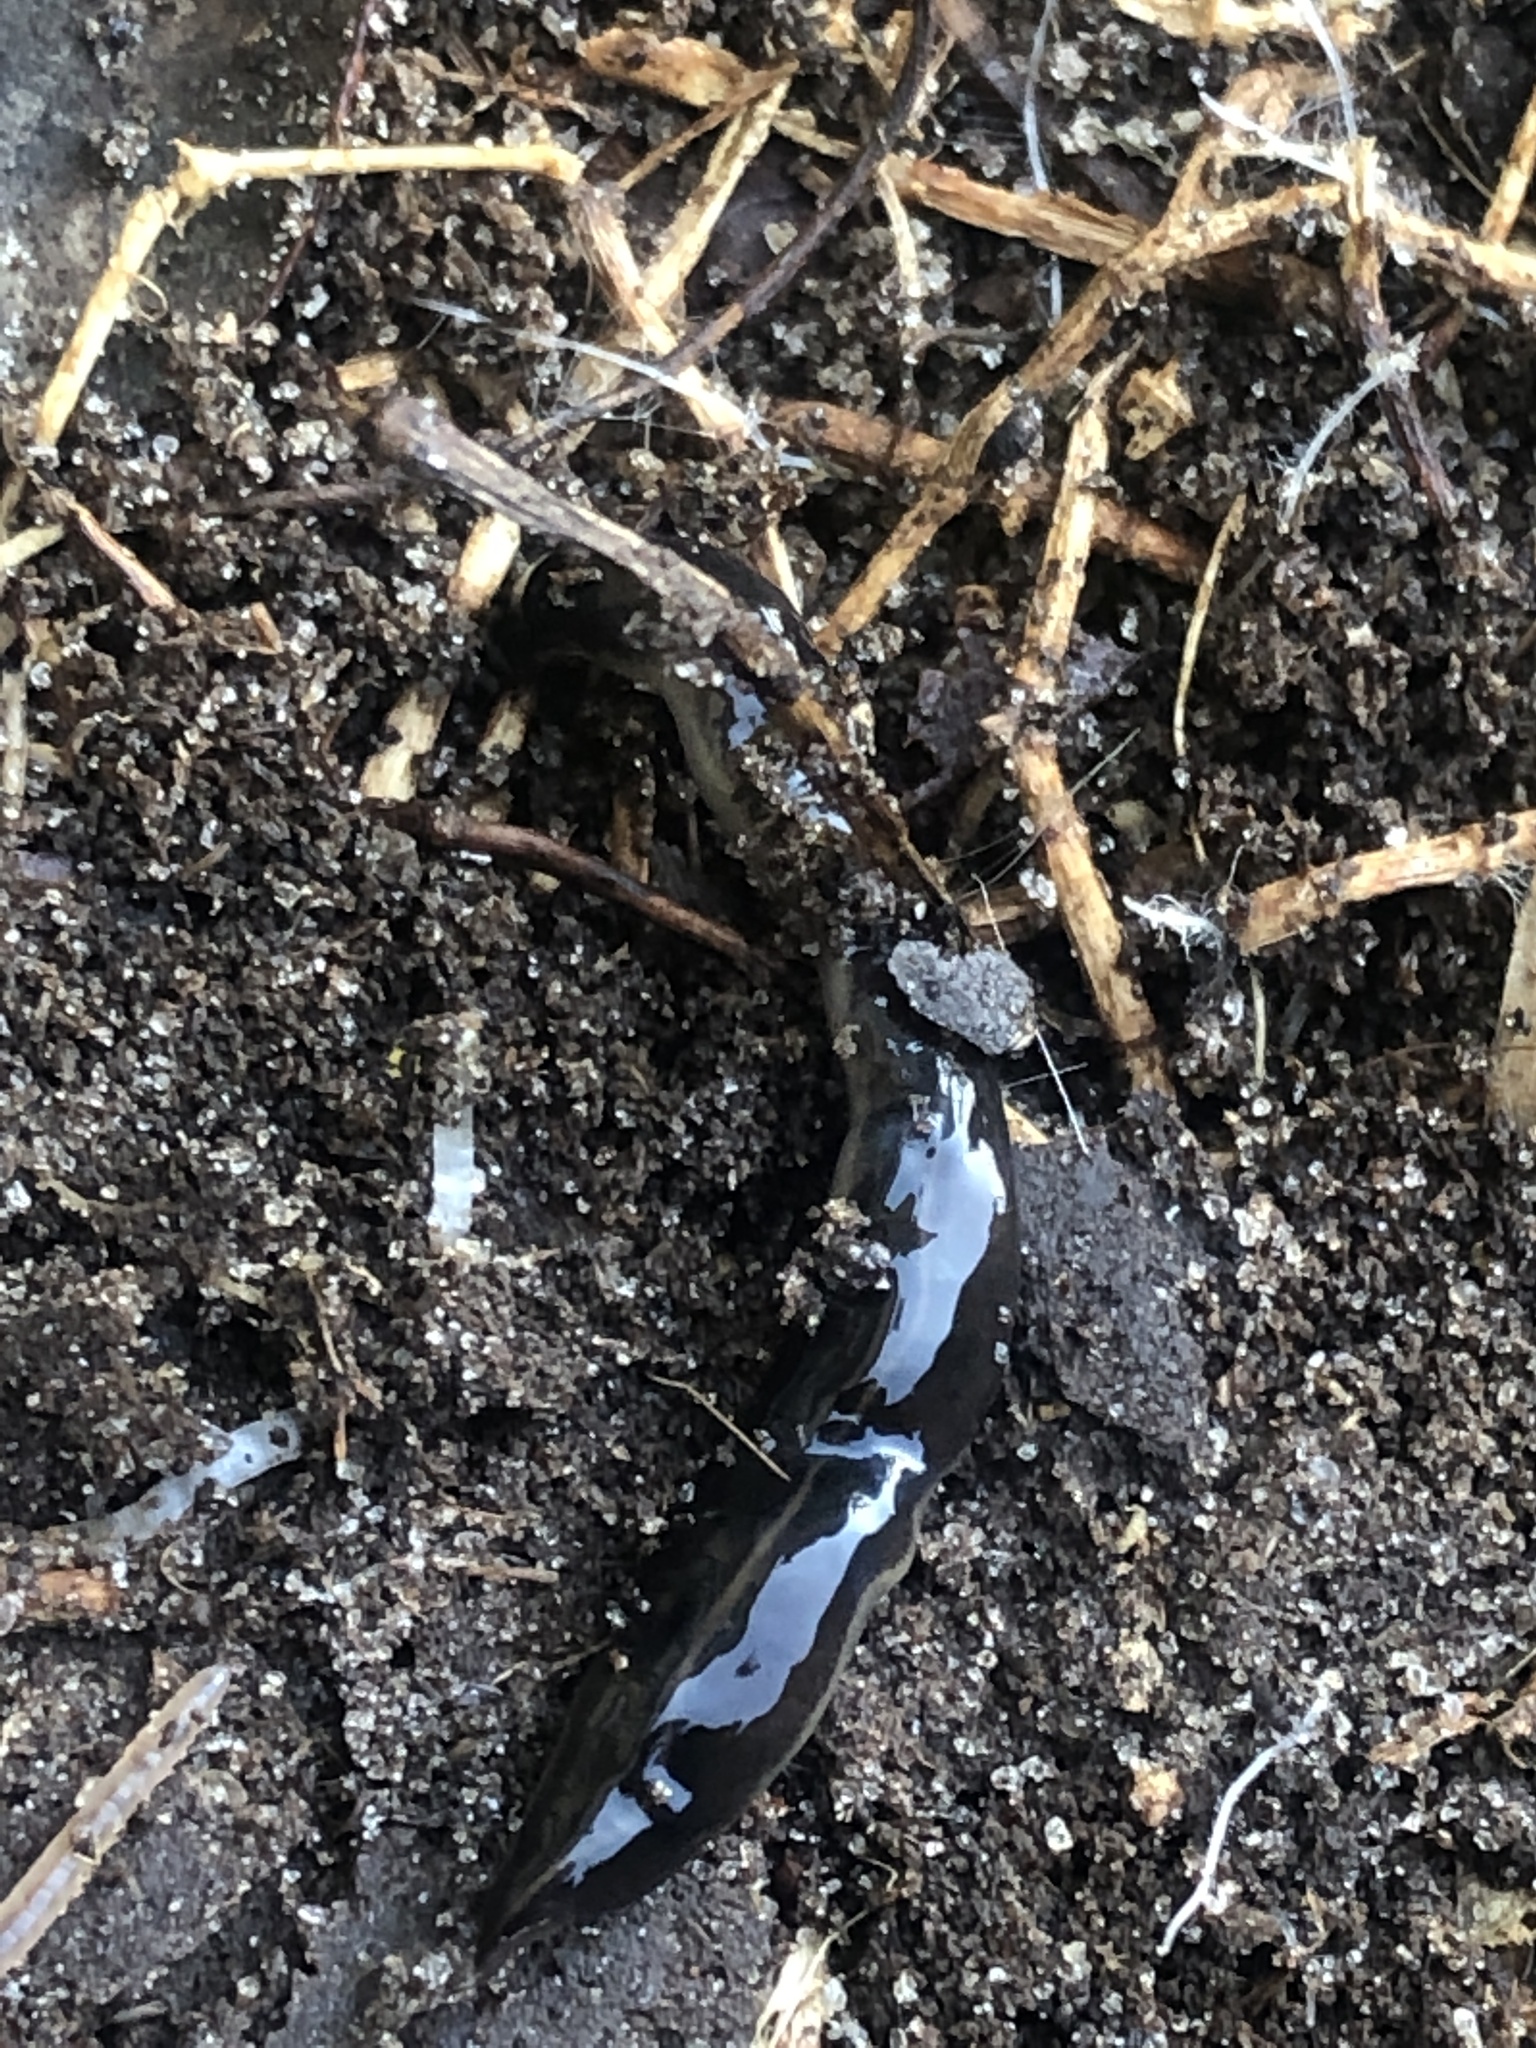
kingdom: Animalia
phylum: Platyhelminthes
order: Tricladida
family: Geoplanidae
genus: Platydemus
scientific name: Platydemus manokwari
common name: New guinea flatworm
